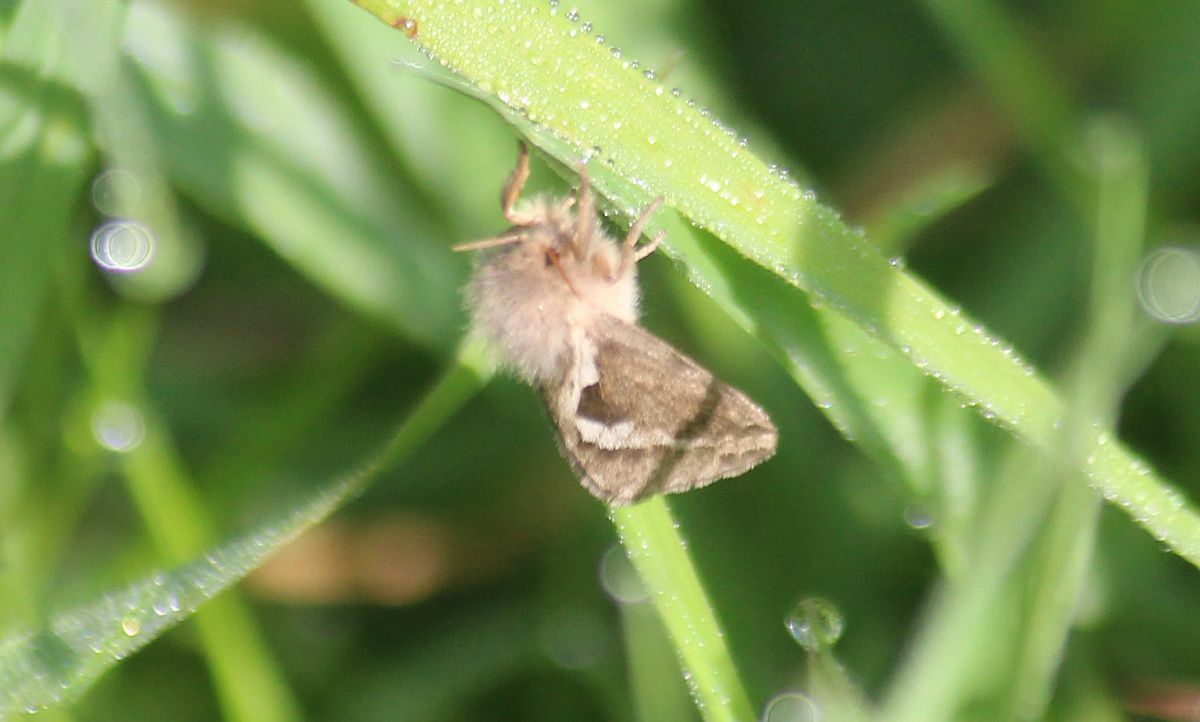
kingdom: Animalia
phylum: Arthropoda
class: Insecta
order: Lepidoptera
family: Hepialidae
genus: Korscheltellus
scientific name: Korscheltellus lupulina
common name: Common swift
